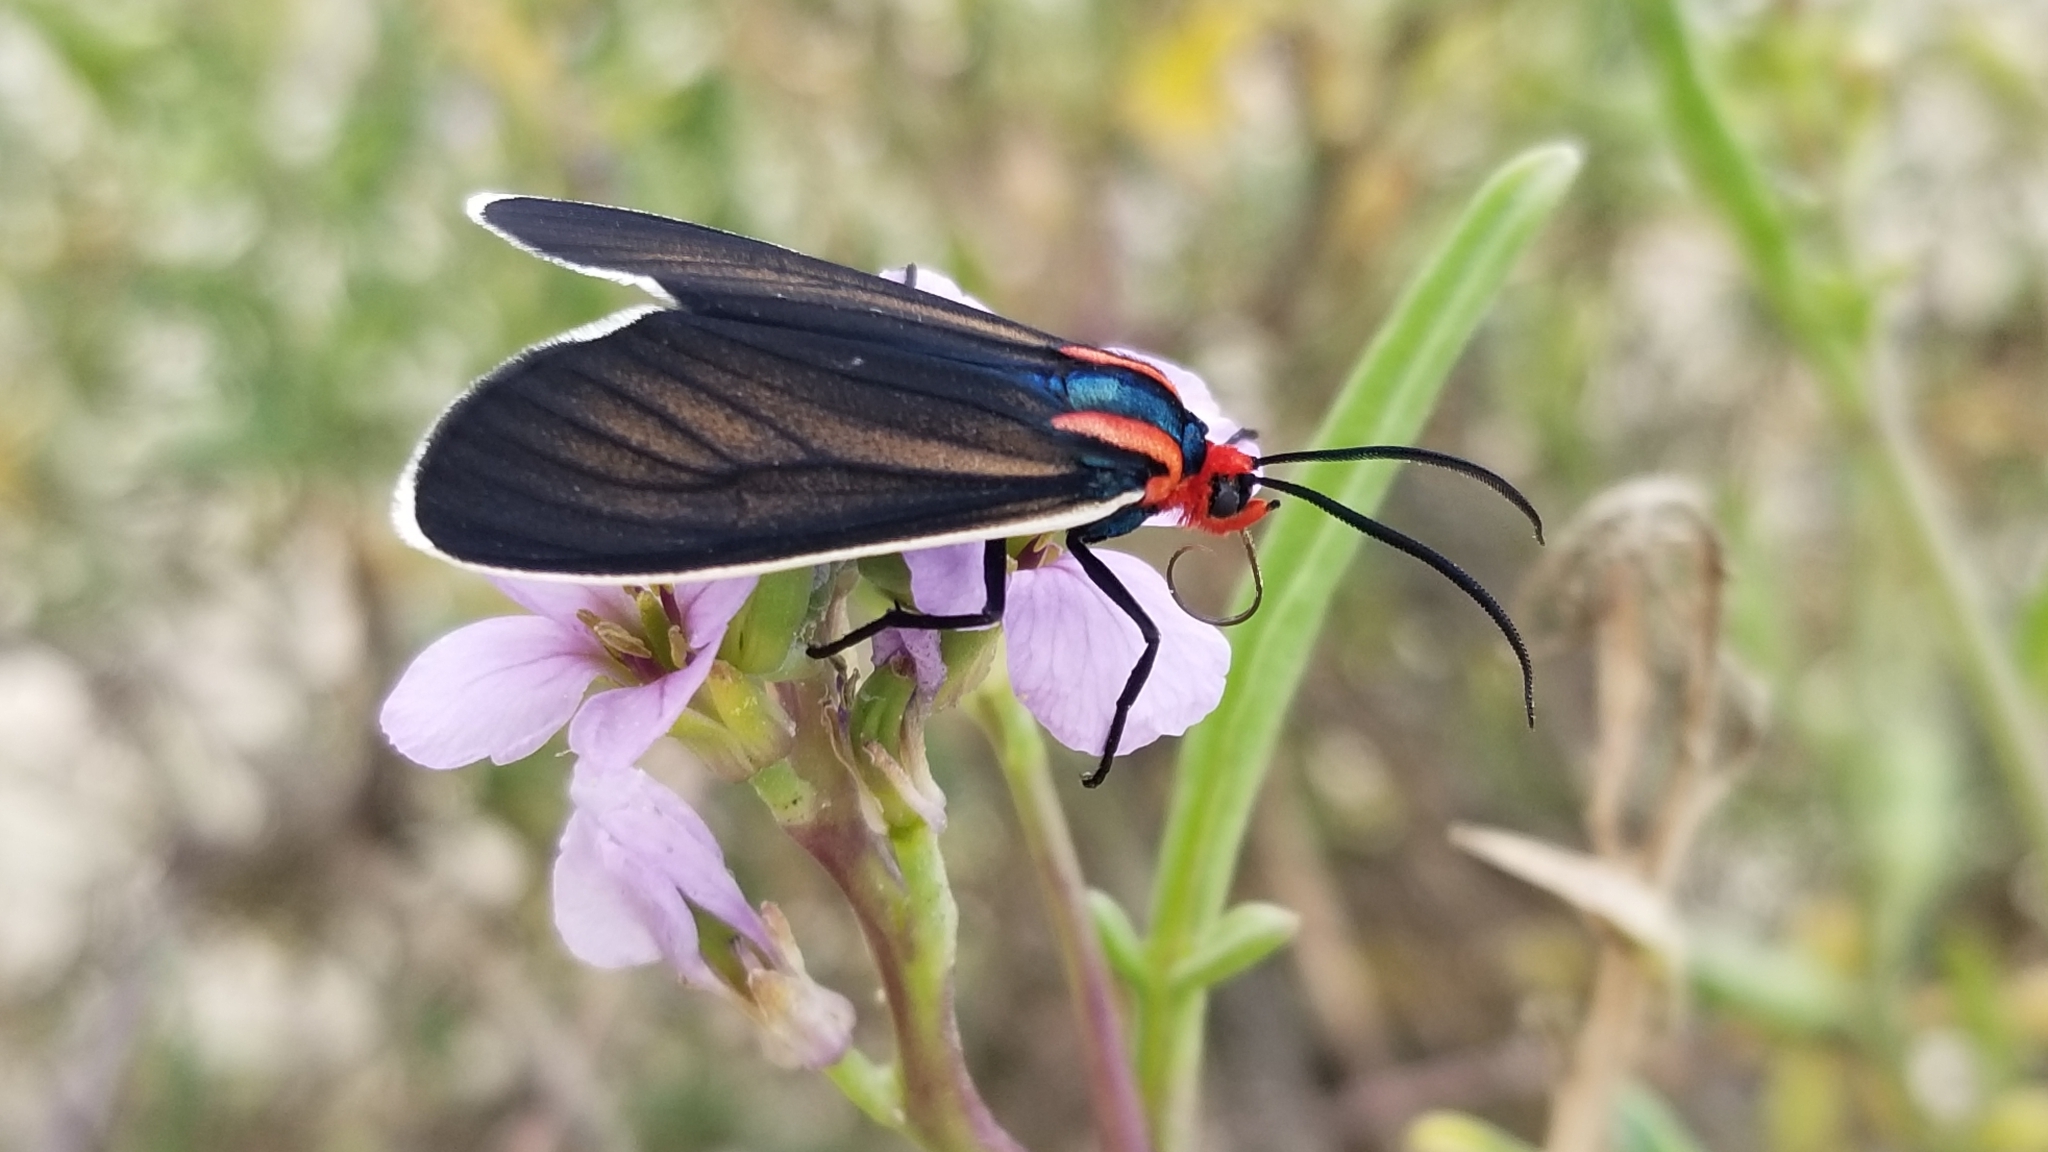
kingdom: Animalia
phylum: Arthropoda
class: Insecta
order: Lepidoptera
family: Erebidae
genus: Ctenucha
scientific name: Ctenucha multifaria
